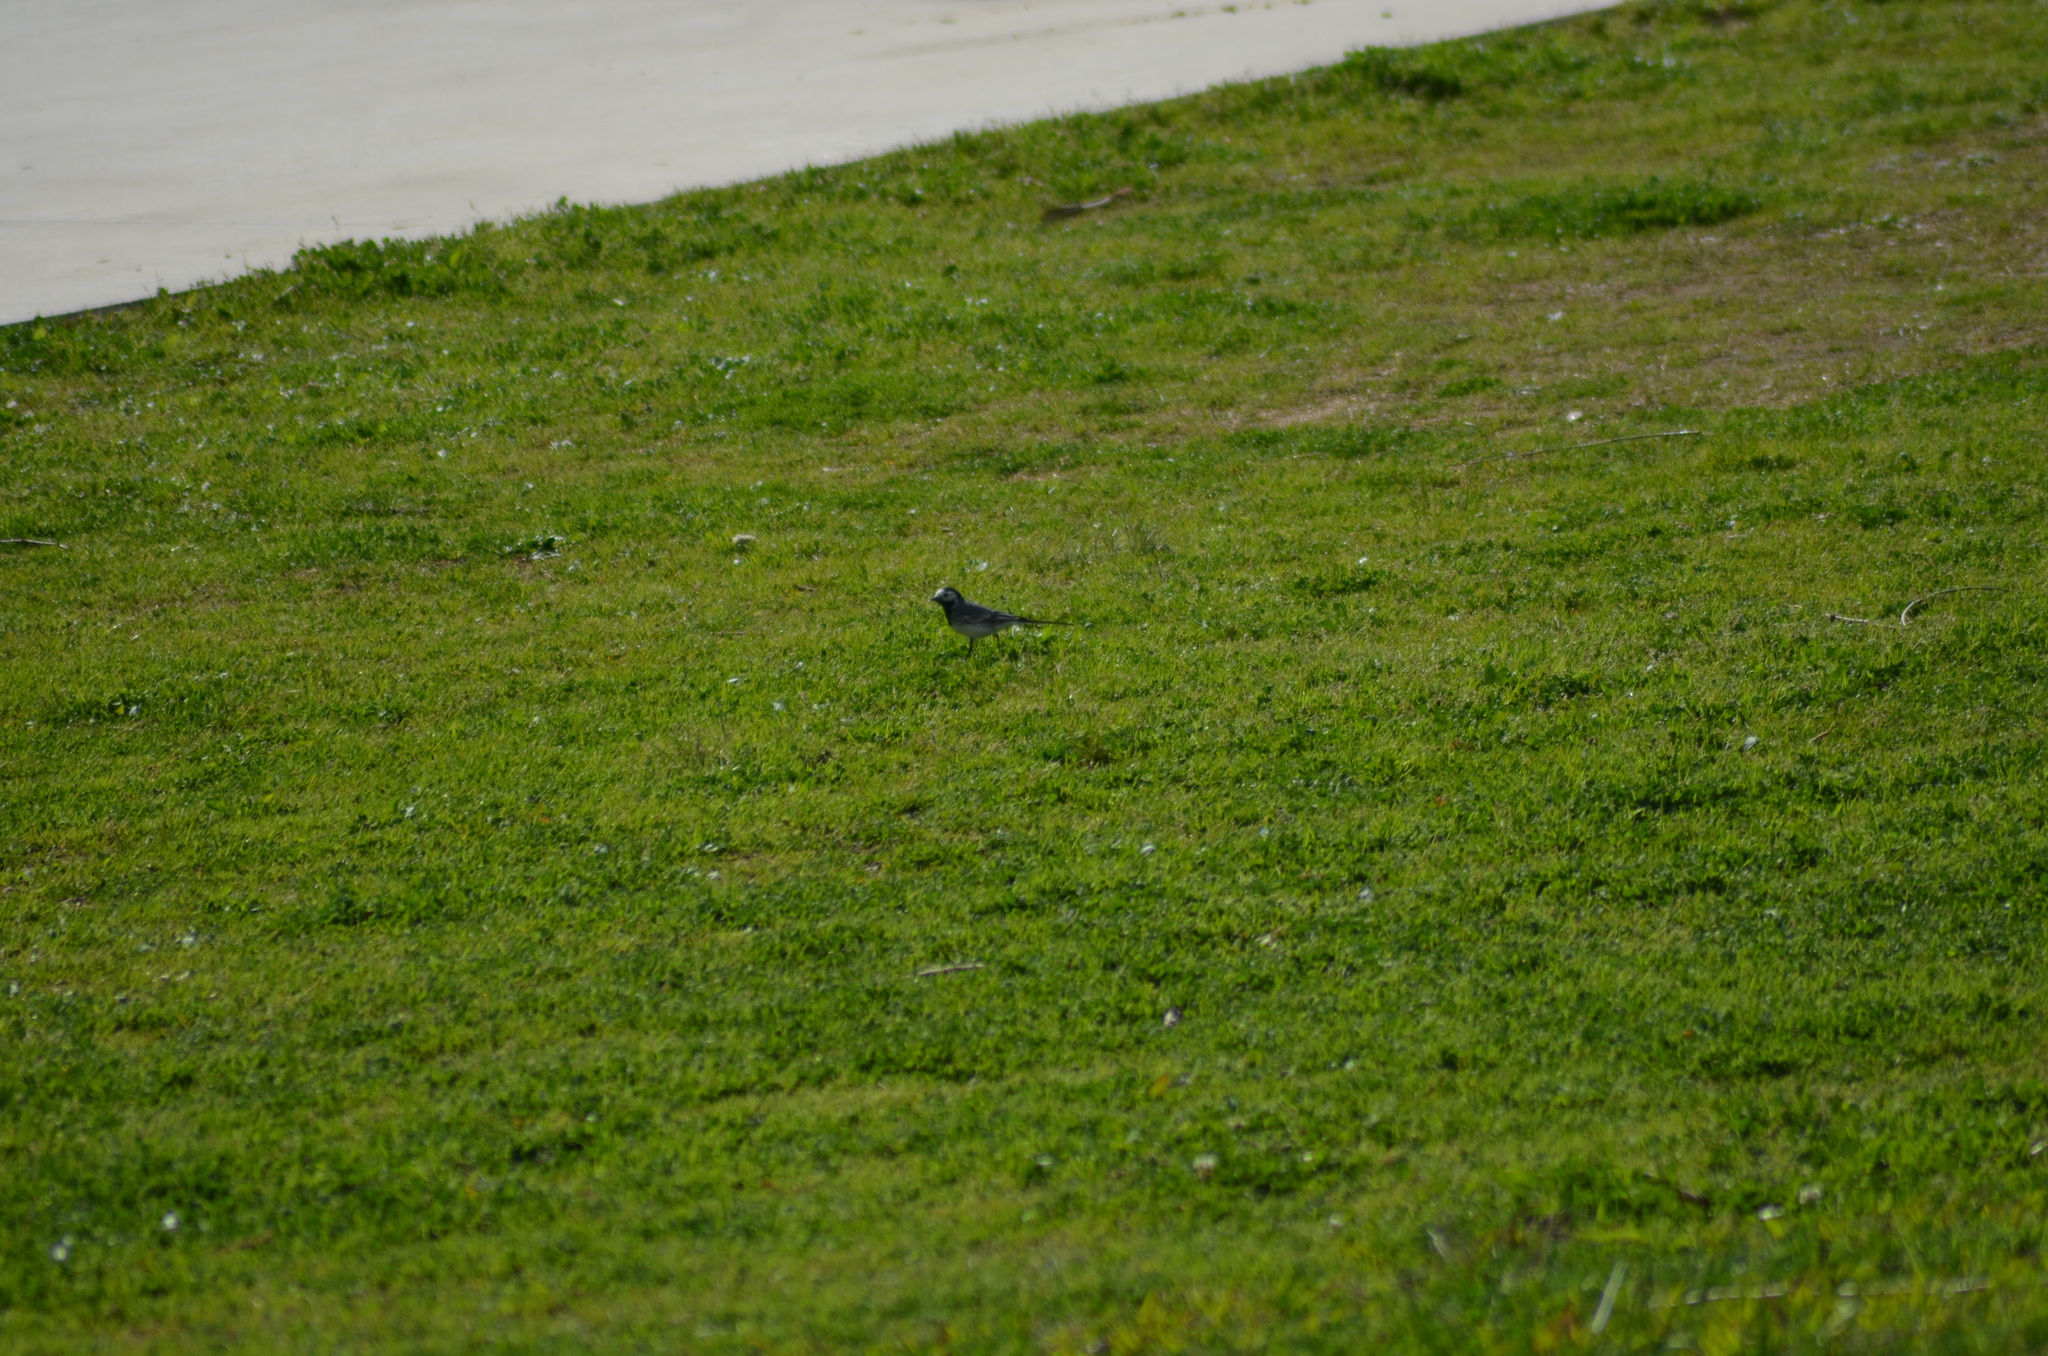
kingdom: Animalia
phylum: Chordata
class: Aves
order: Passeriformes
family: Motacillidae
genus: Motacilla
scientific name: Motacilla alba
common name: White wagtail
